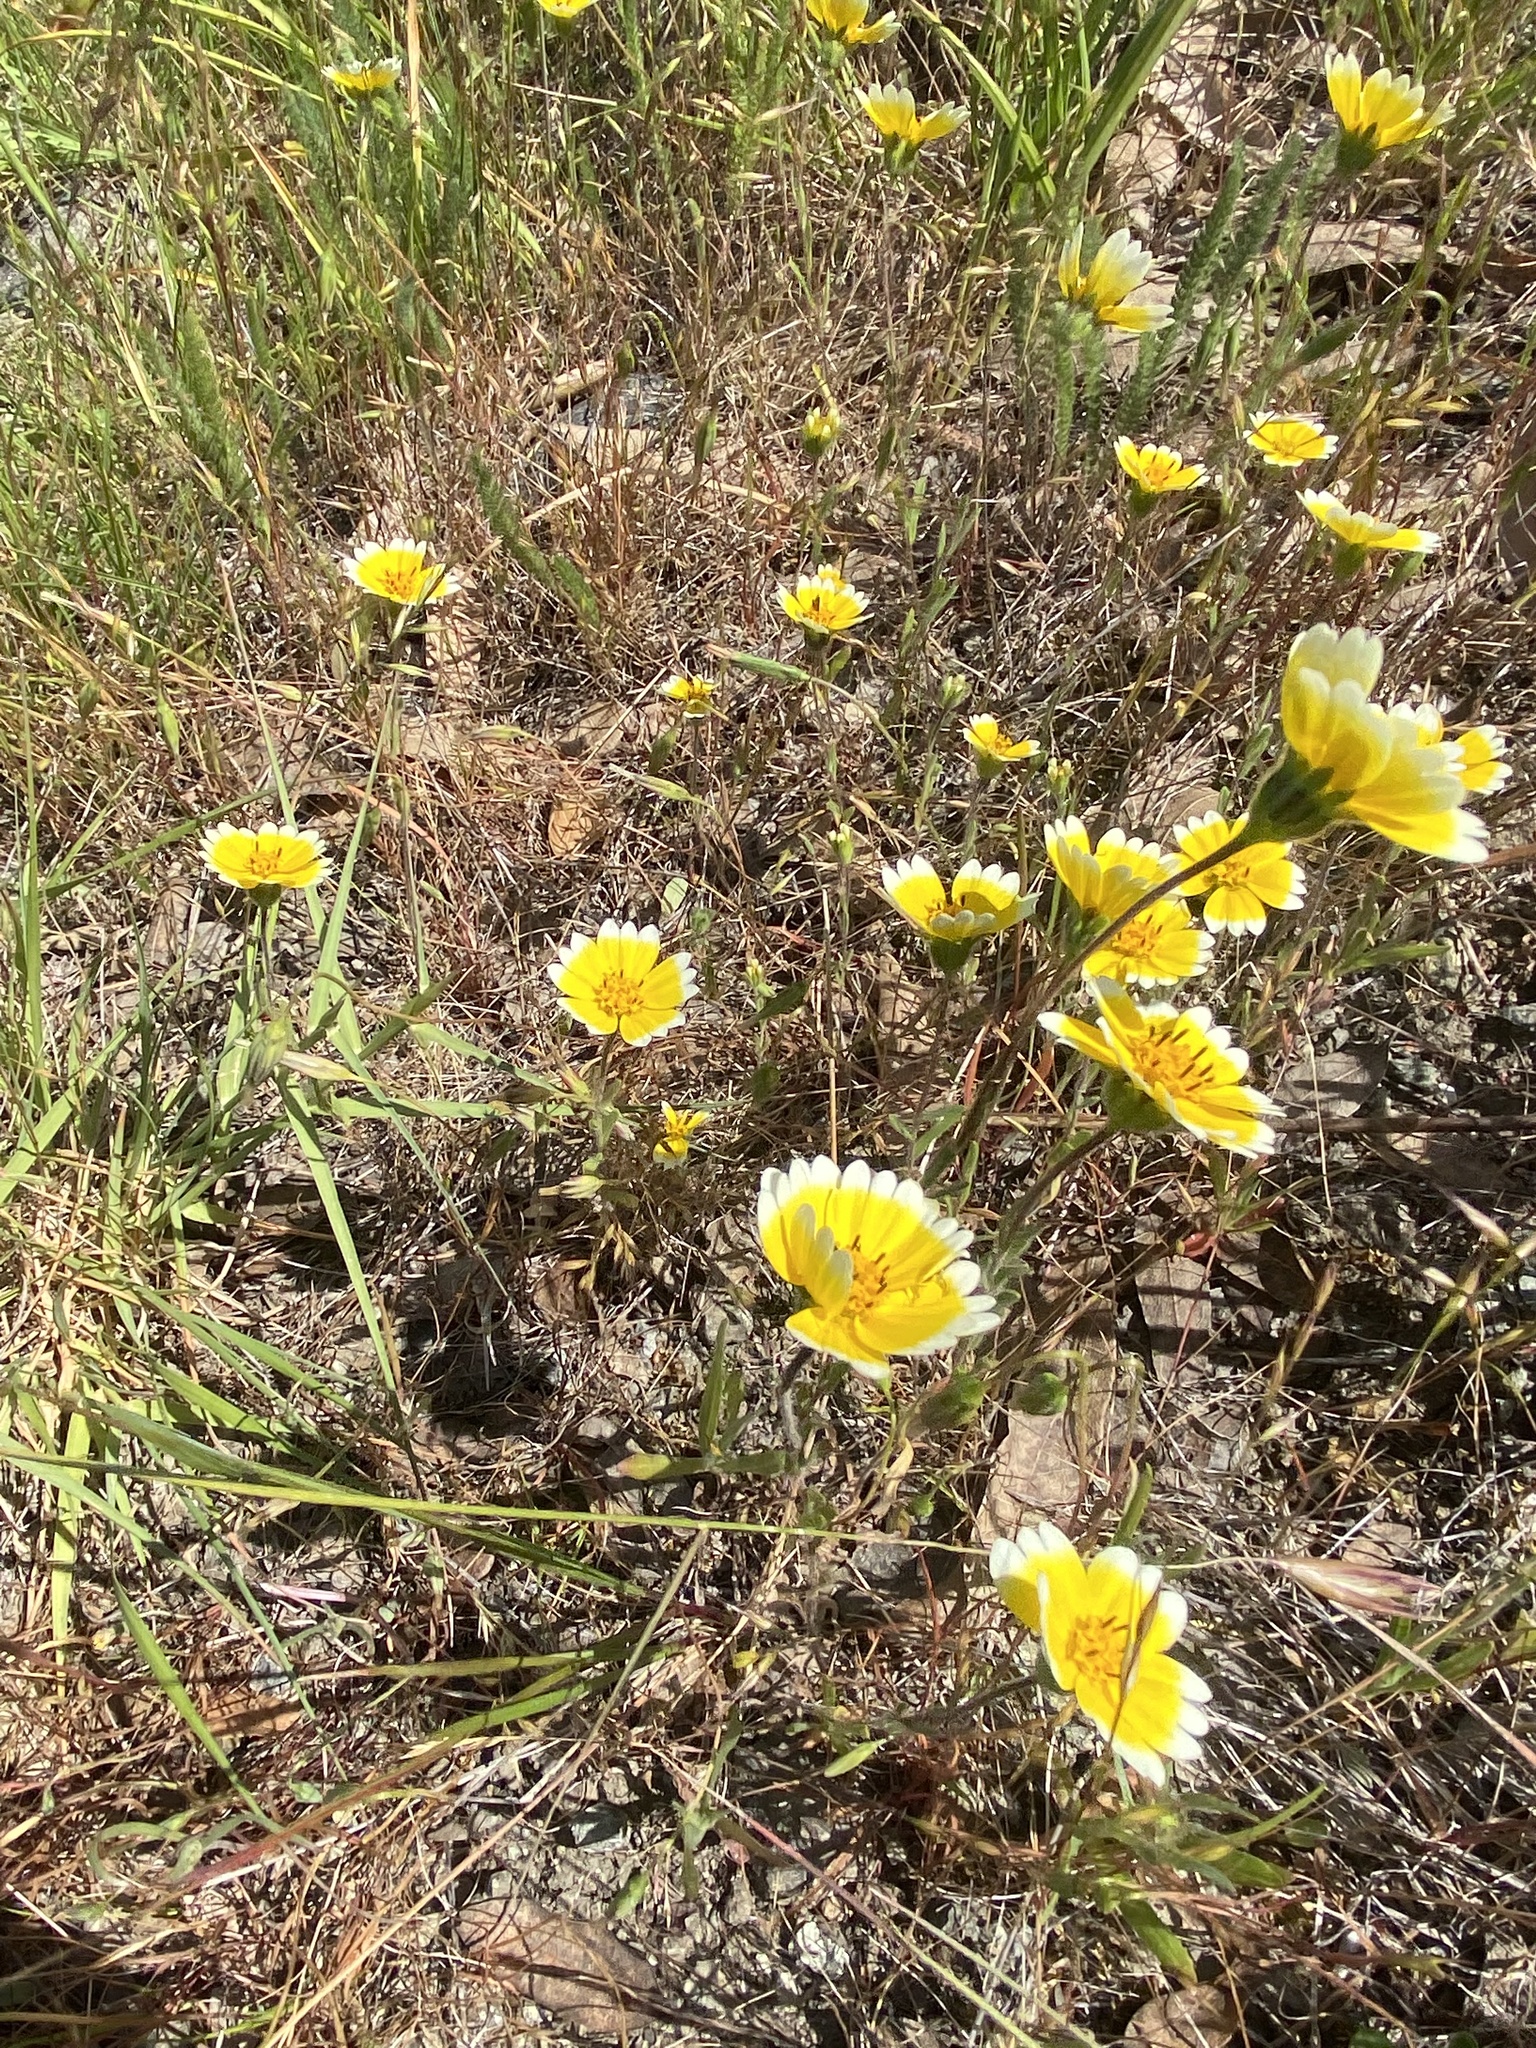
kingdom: Plantae
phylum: Tracheophyta
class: Magnoliopsida
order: Asterales
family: Asteraceae
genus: Layia
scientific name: Layia platyglossa
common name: Tidy-tips
